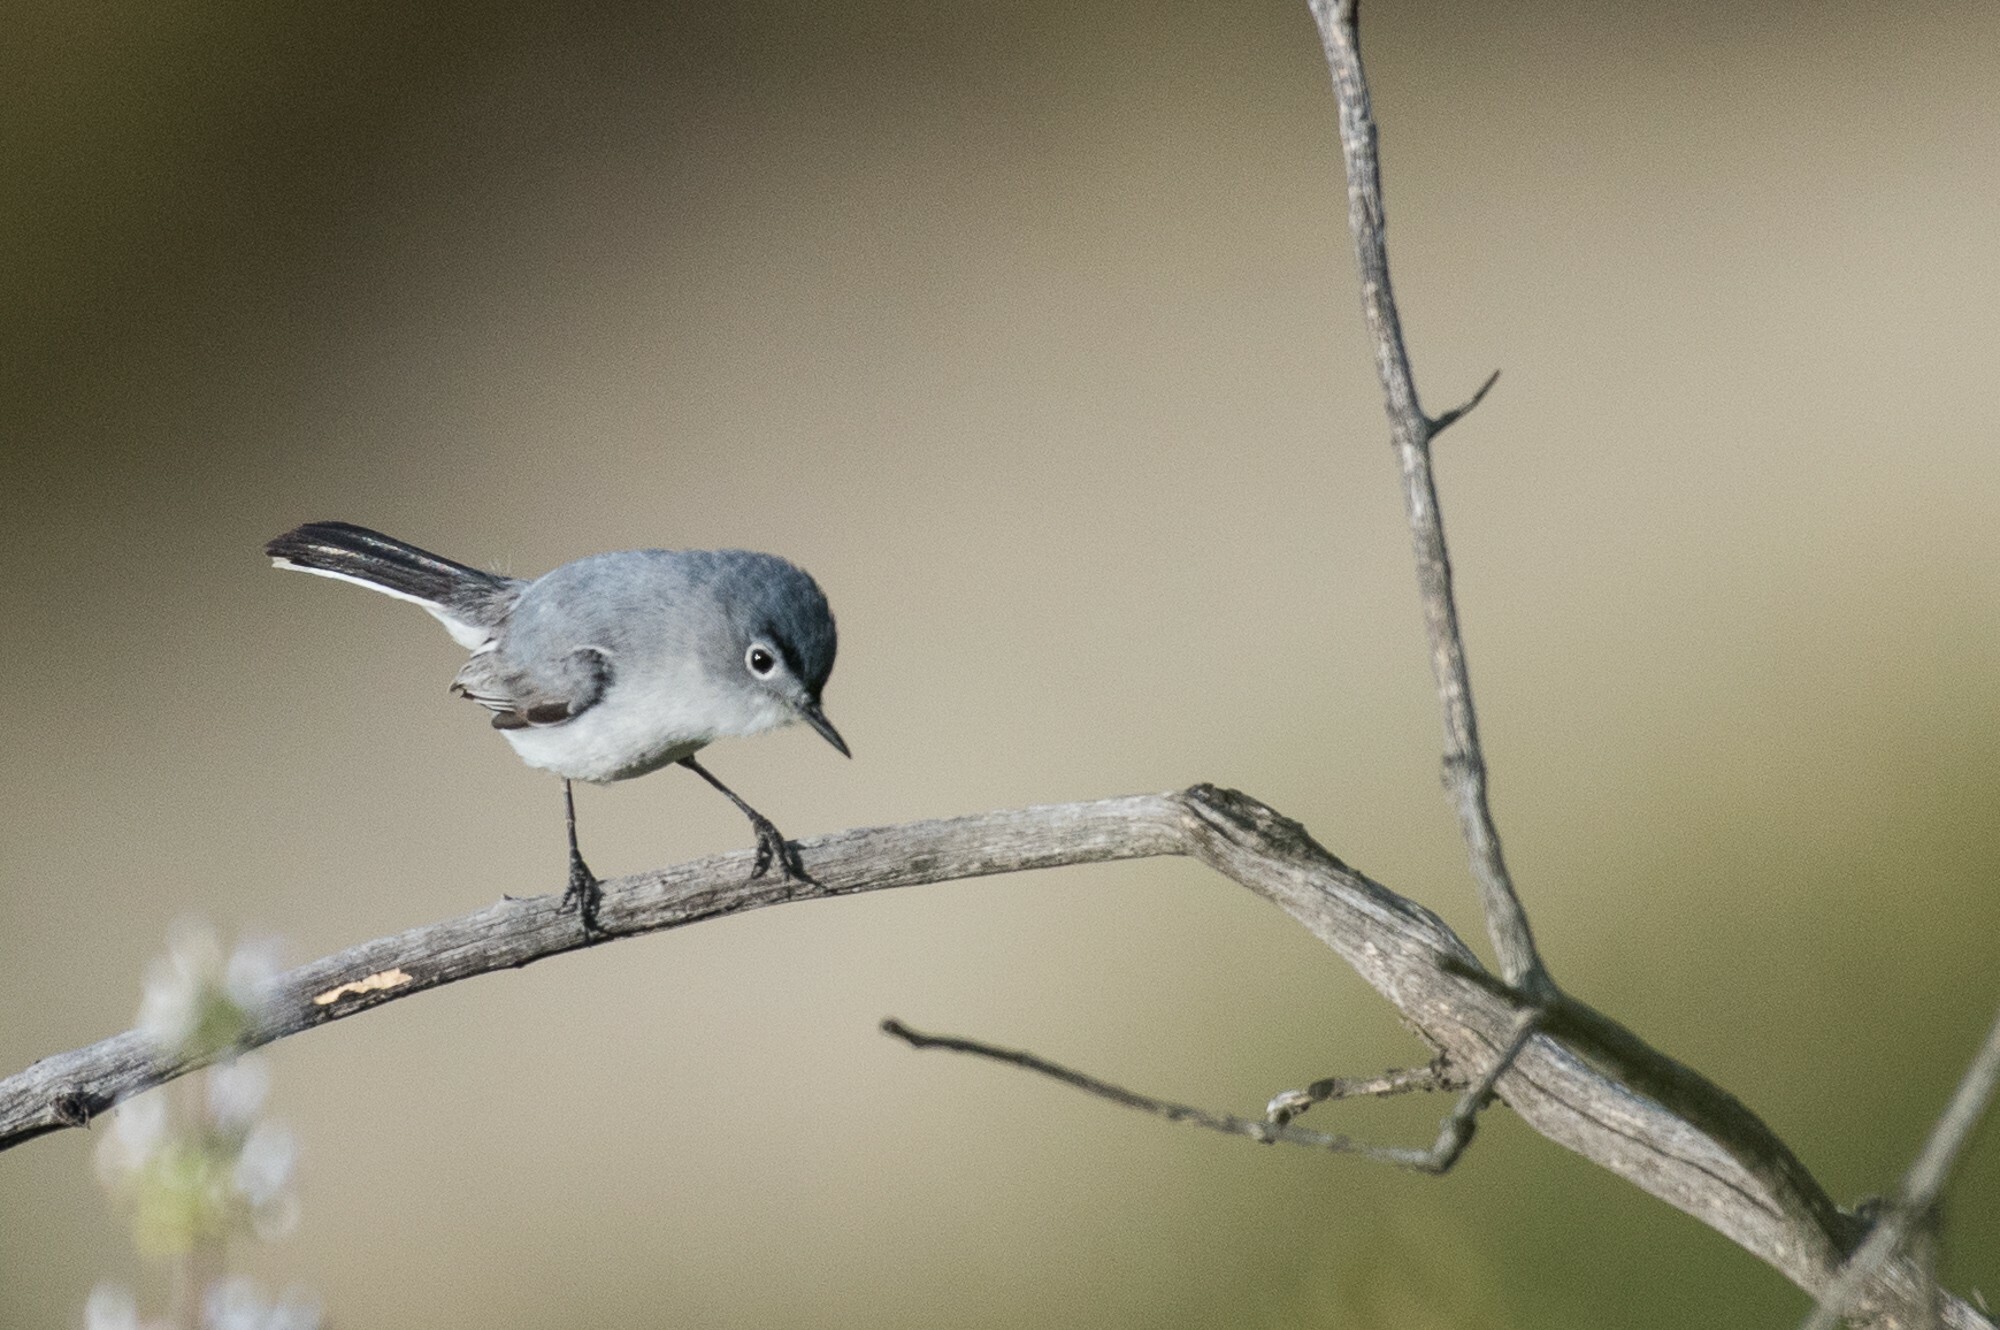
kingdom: Animalia
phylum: Chordata
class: Aves
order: Passeriformes
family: Polioptilidae
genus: Polioptila
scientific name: Polioptila caerulea
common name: Blue-gray gnatcatcher
